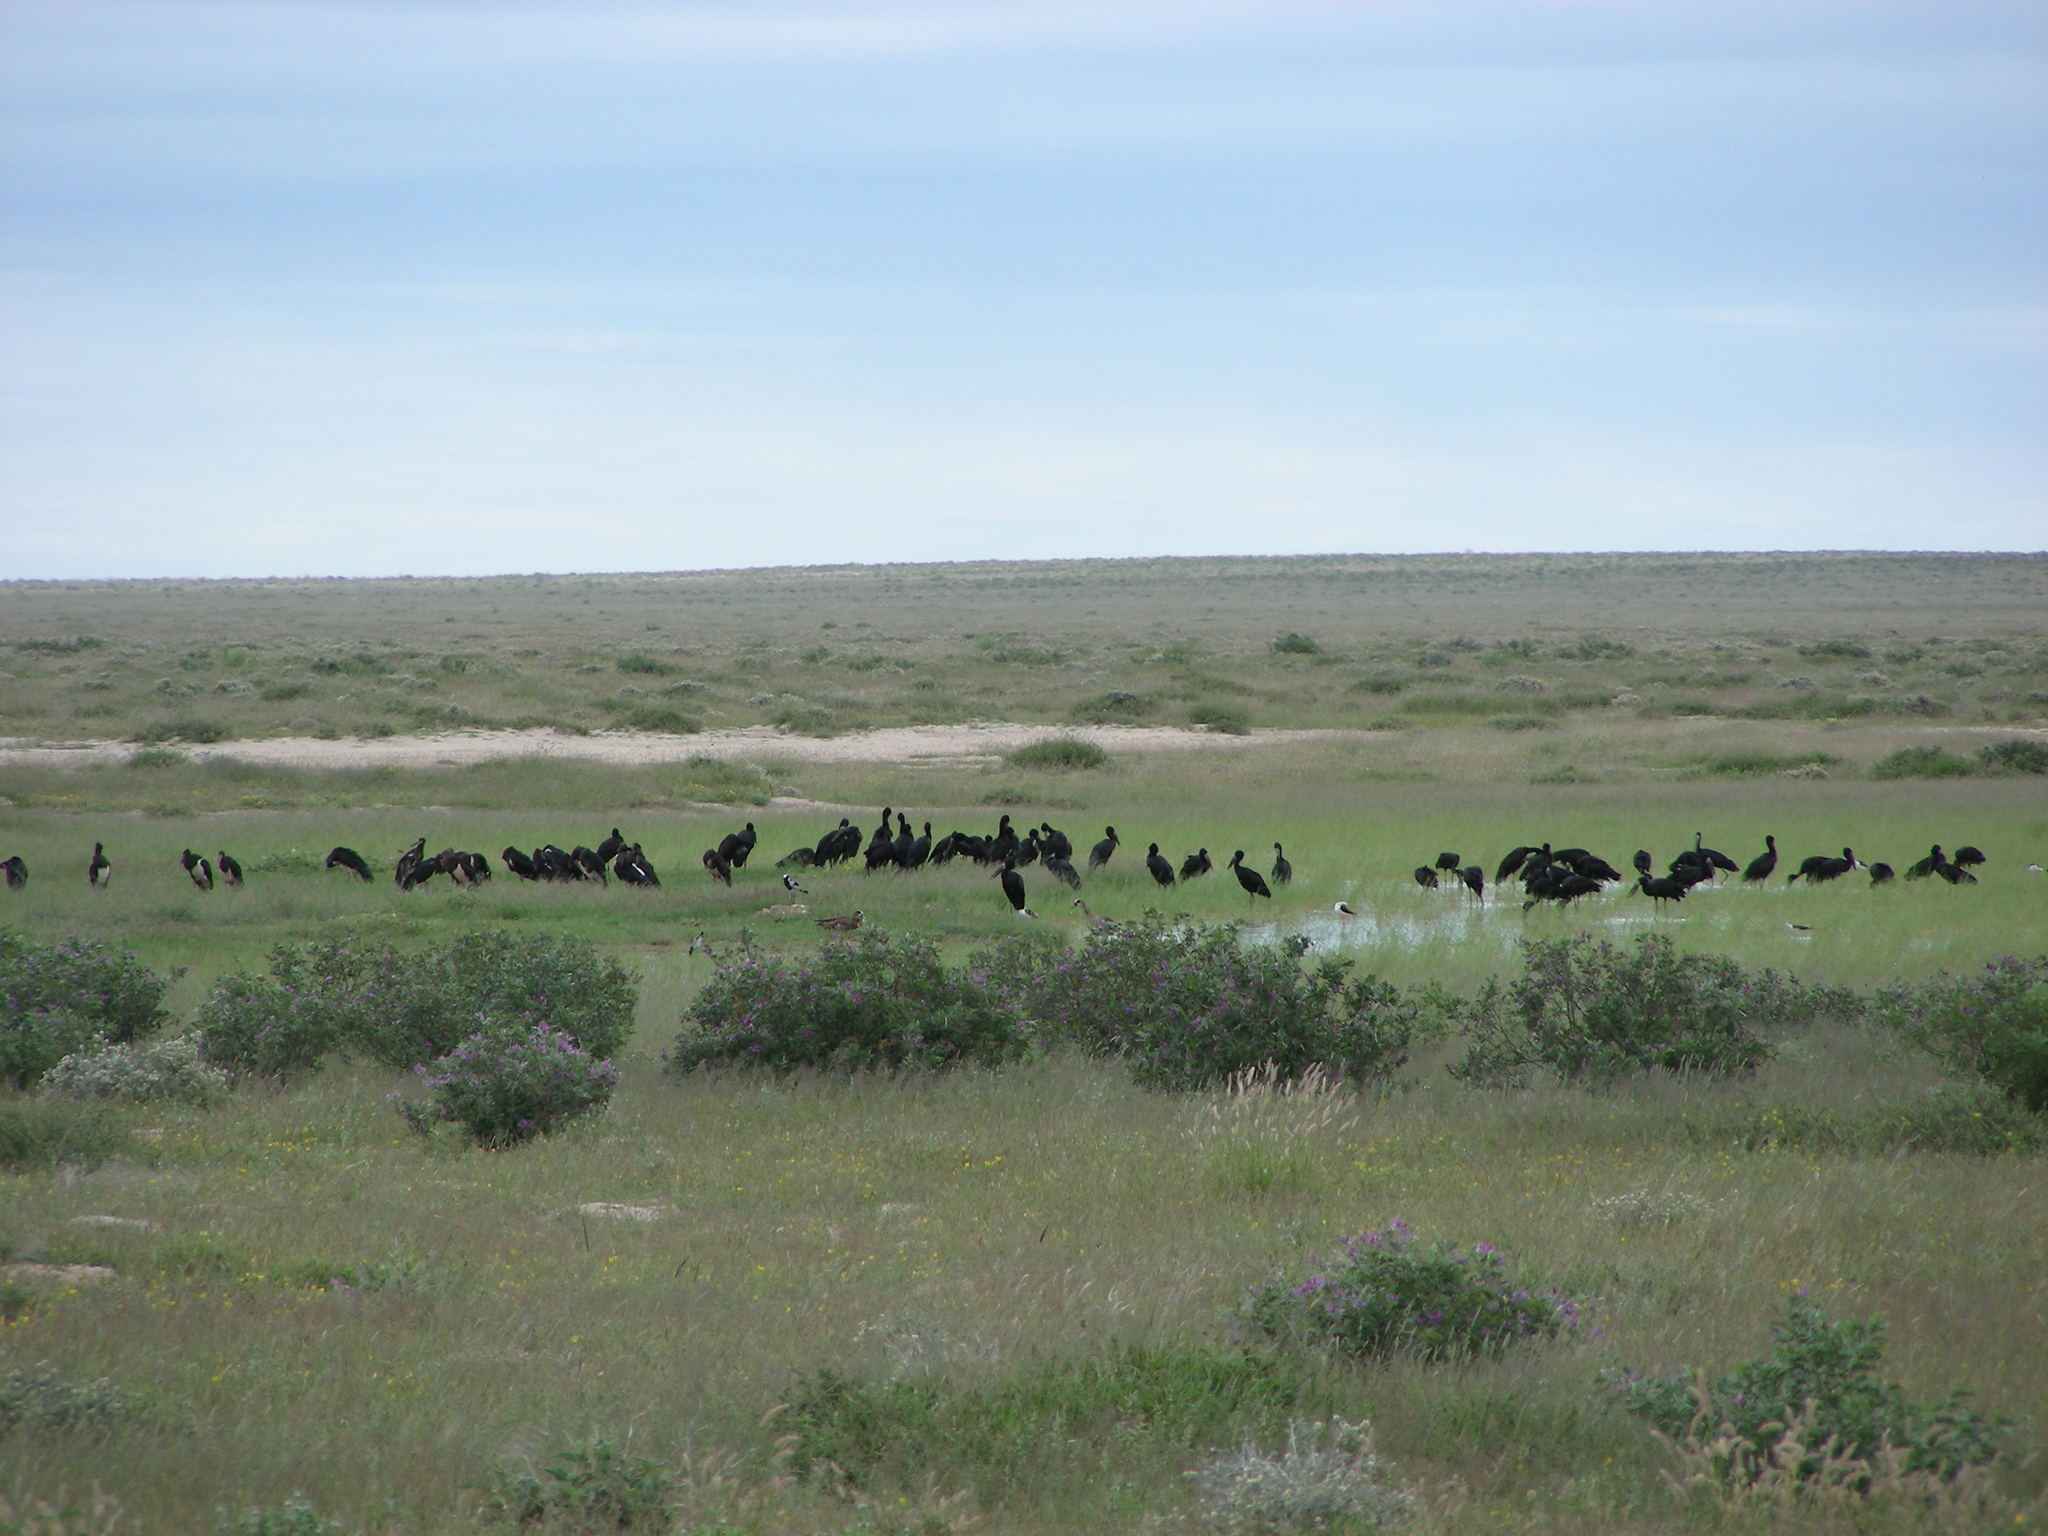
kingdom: Animalia
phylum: Chordata
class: Aves
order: Ciconiiformes
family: Ciconiidae
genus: Anastomus
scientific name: Anastomus lamelligerus
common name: African openbill
